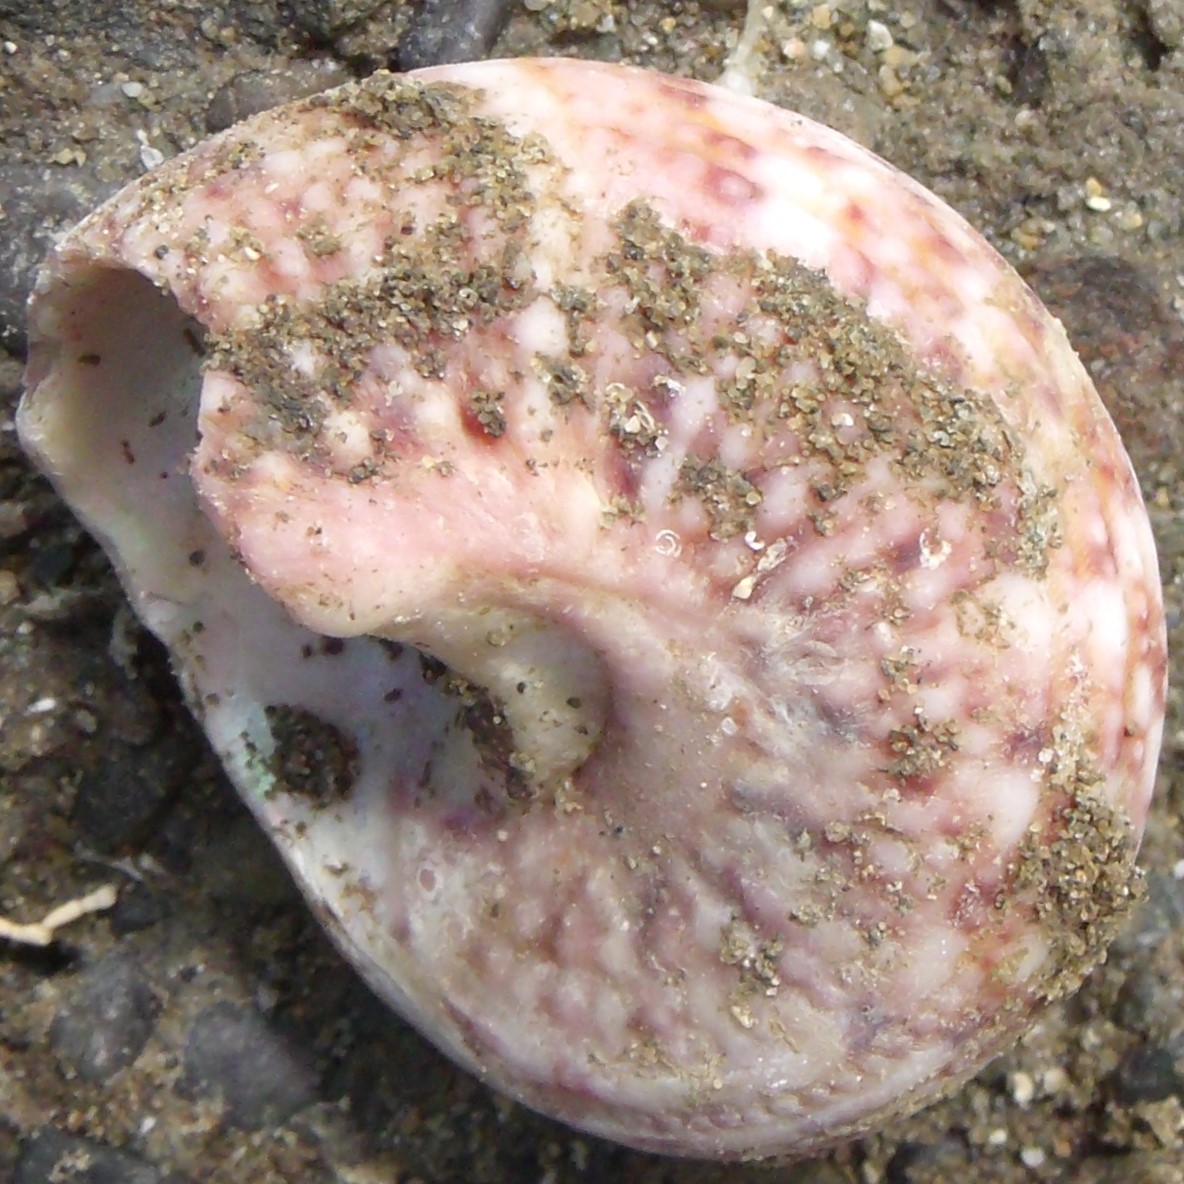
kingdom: Animalia
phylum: Mollusca
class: Gastropoda
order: Trochida
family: Turbinidae
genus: Modelia
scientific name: Modelia granosa
